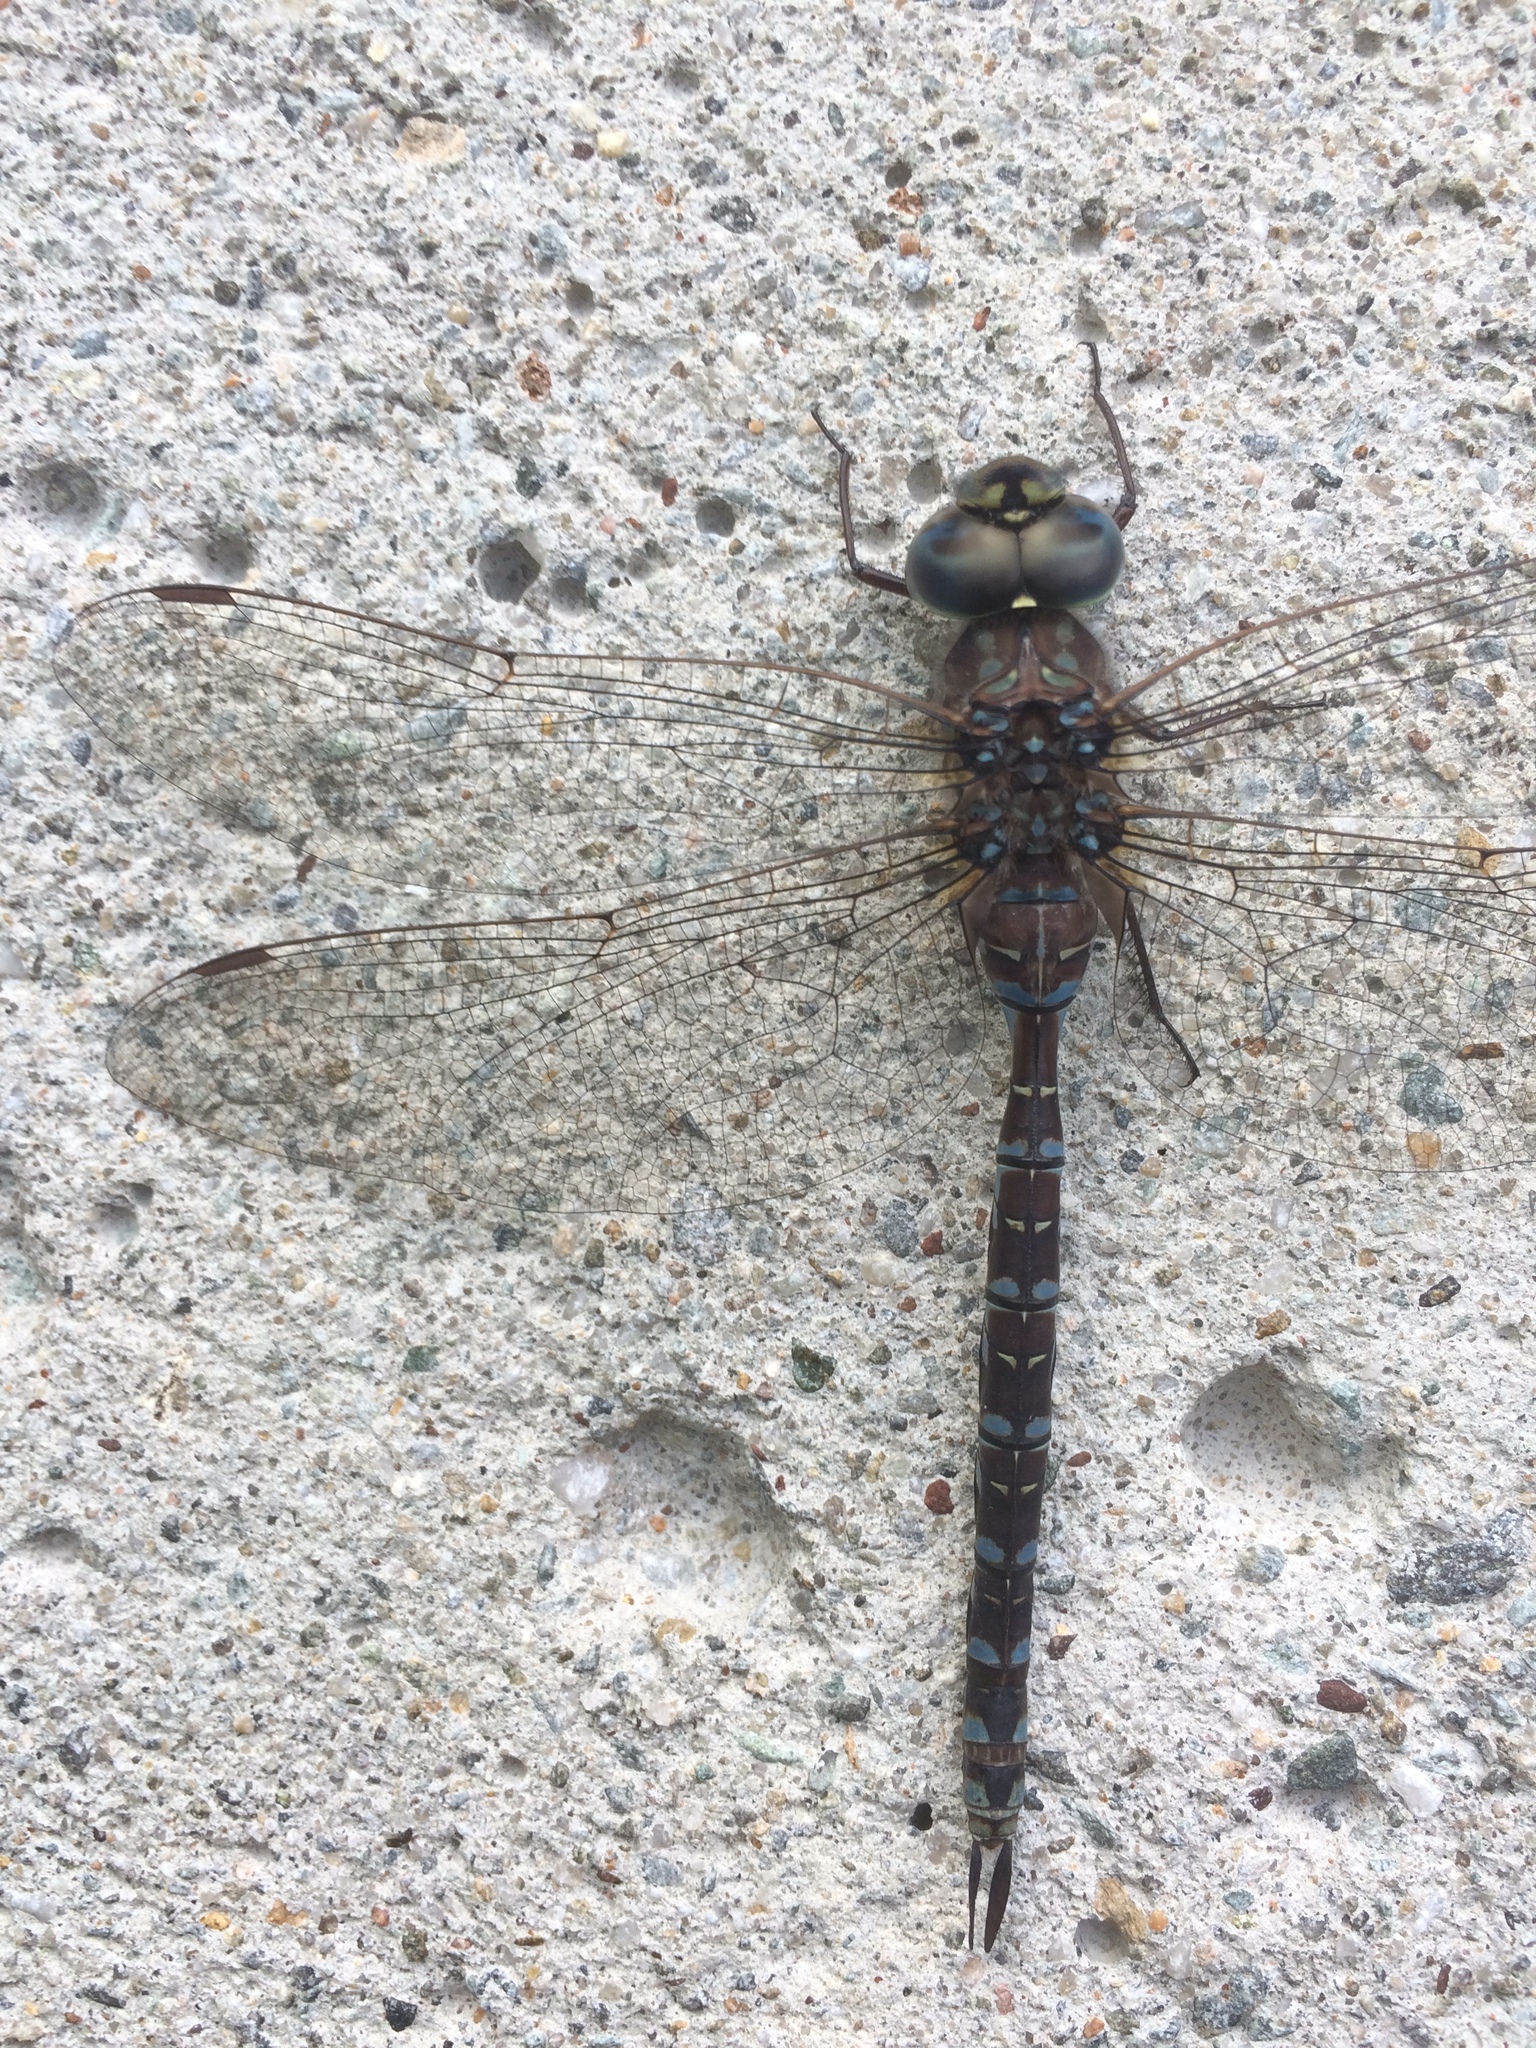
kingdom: Animalia
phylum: Arthropoda
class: Insecta
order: Odonata
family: Aeshnidae
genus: Aeshna
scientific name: Aeshna canadensis
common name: Canada darner
